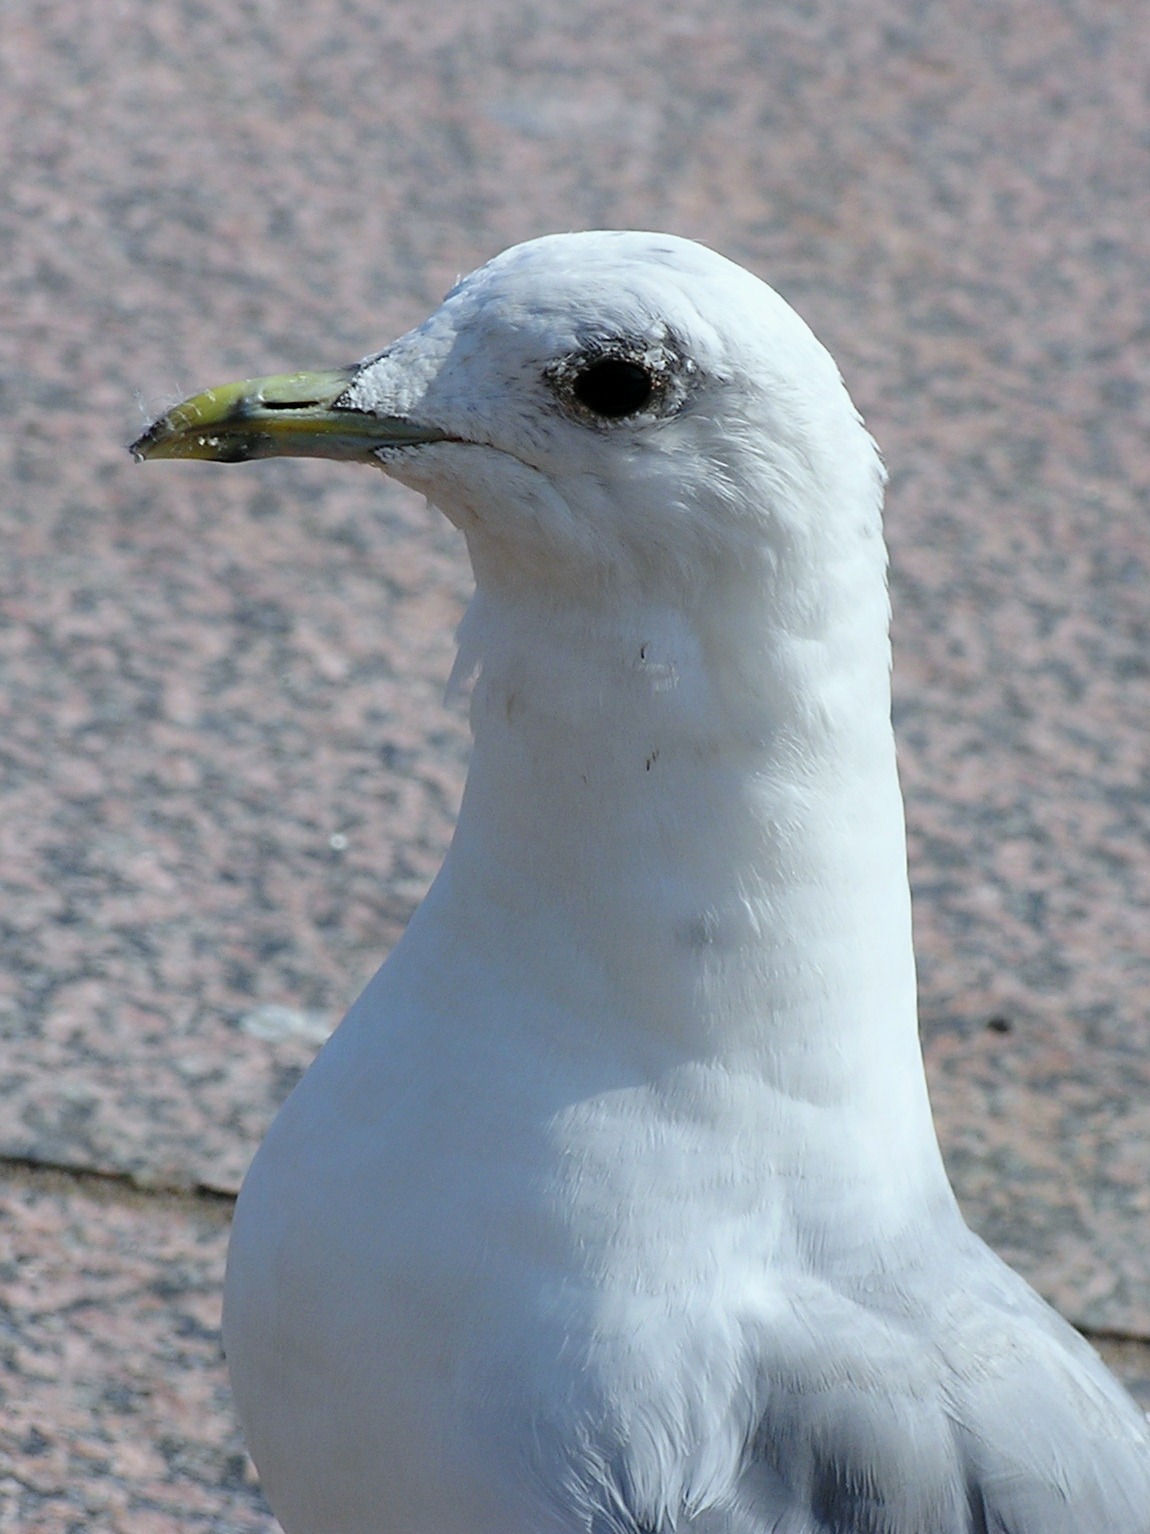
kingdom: Animalia
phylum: Chordata
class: Aves
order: Charadriiformes
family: Laridae
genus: Larus
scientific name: Larus canus
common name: Mew gull
